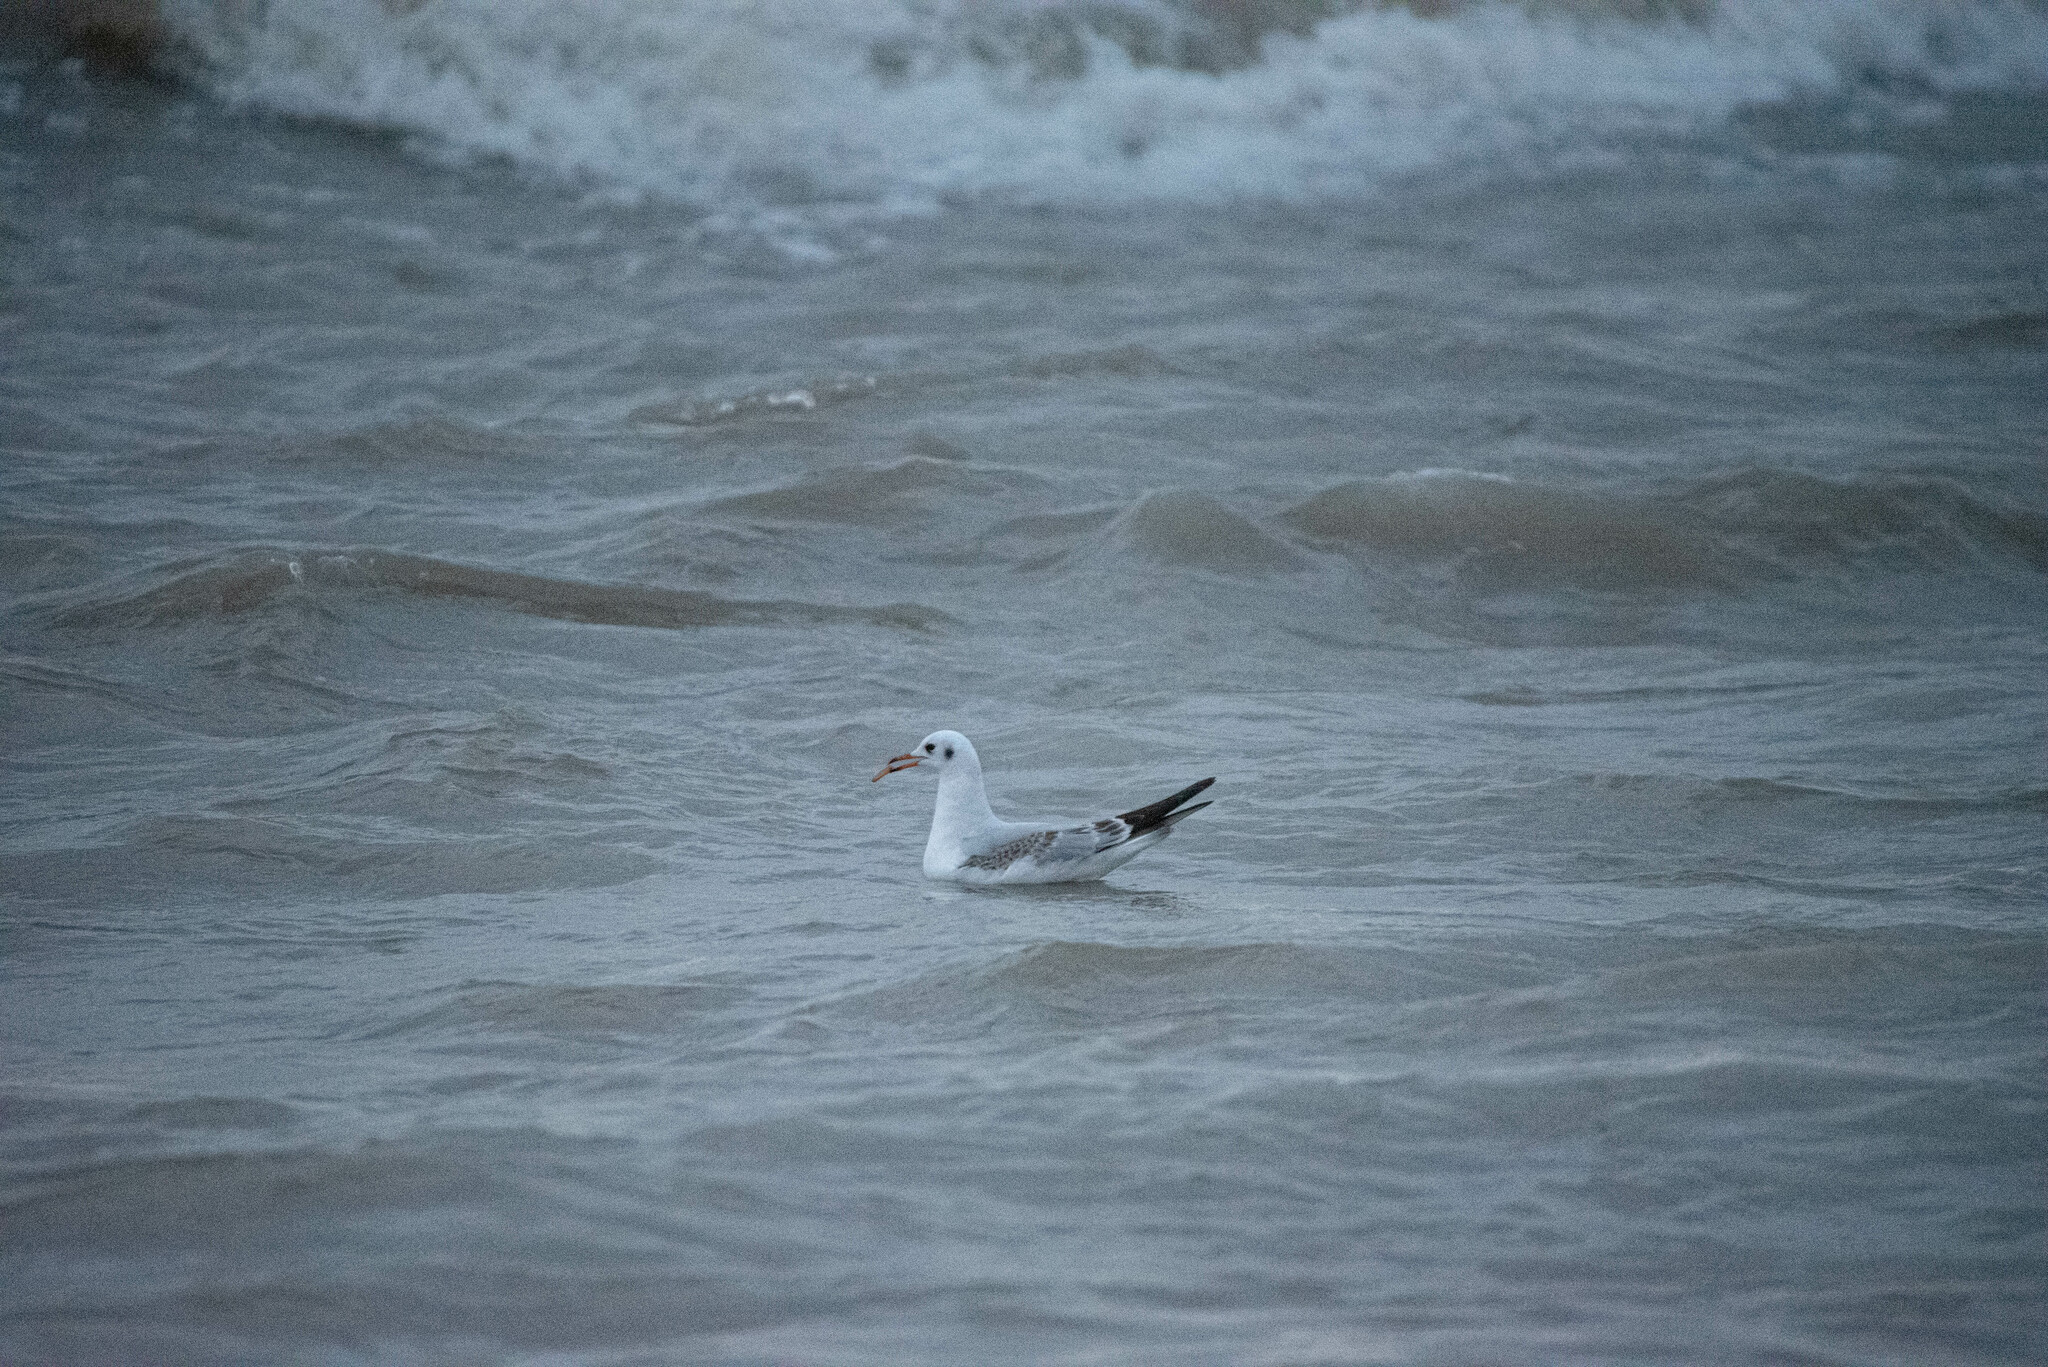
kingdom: Animalia
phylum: Chordata
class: Aves
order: Charadriiformes
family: Laridae
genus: Chroicocephalus
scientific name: Chroicocephalus ridibundus
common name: Black-headed gull
